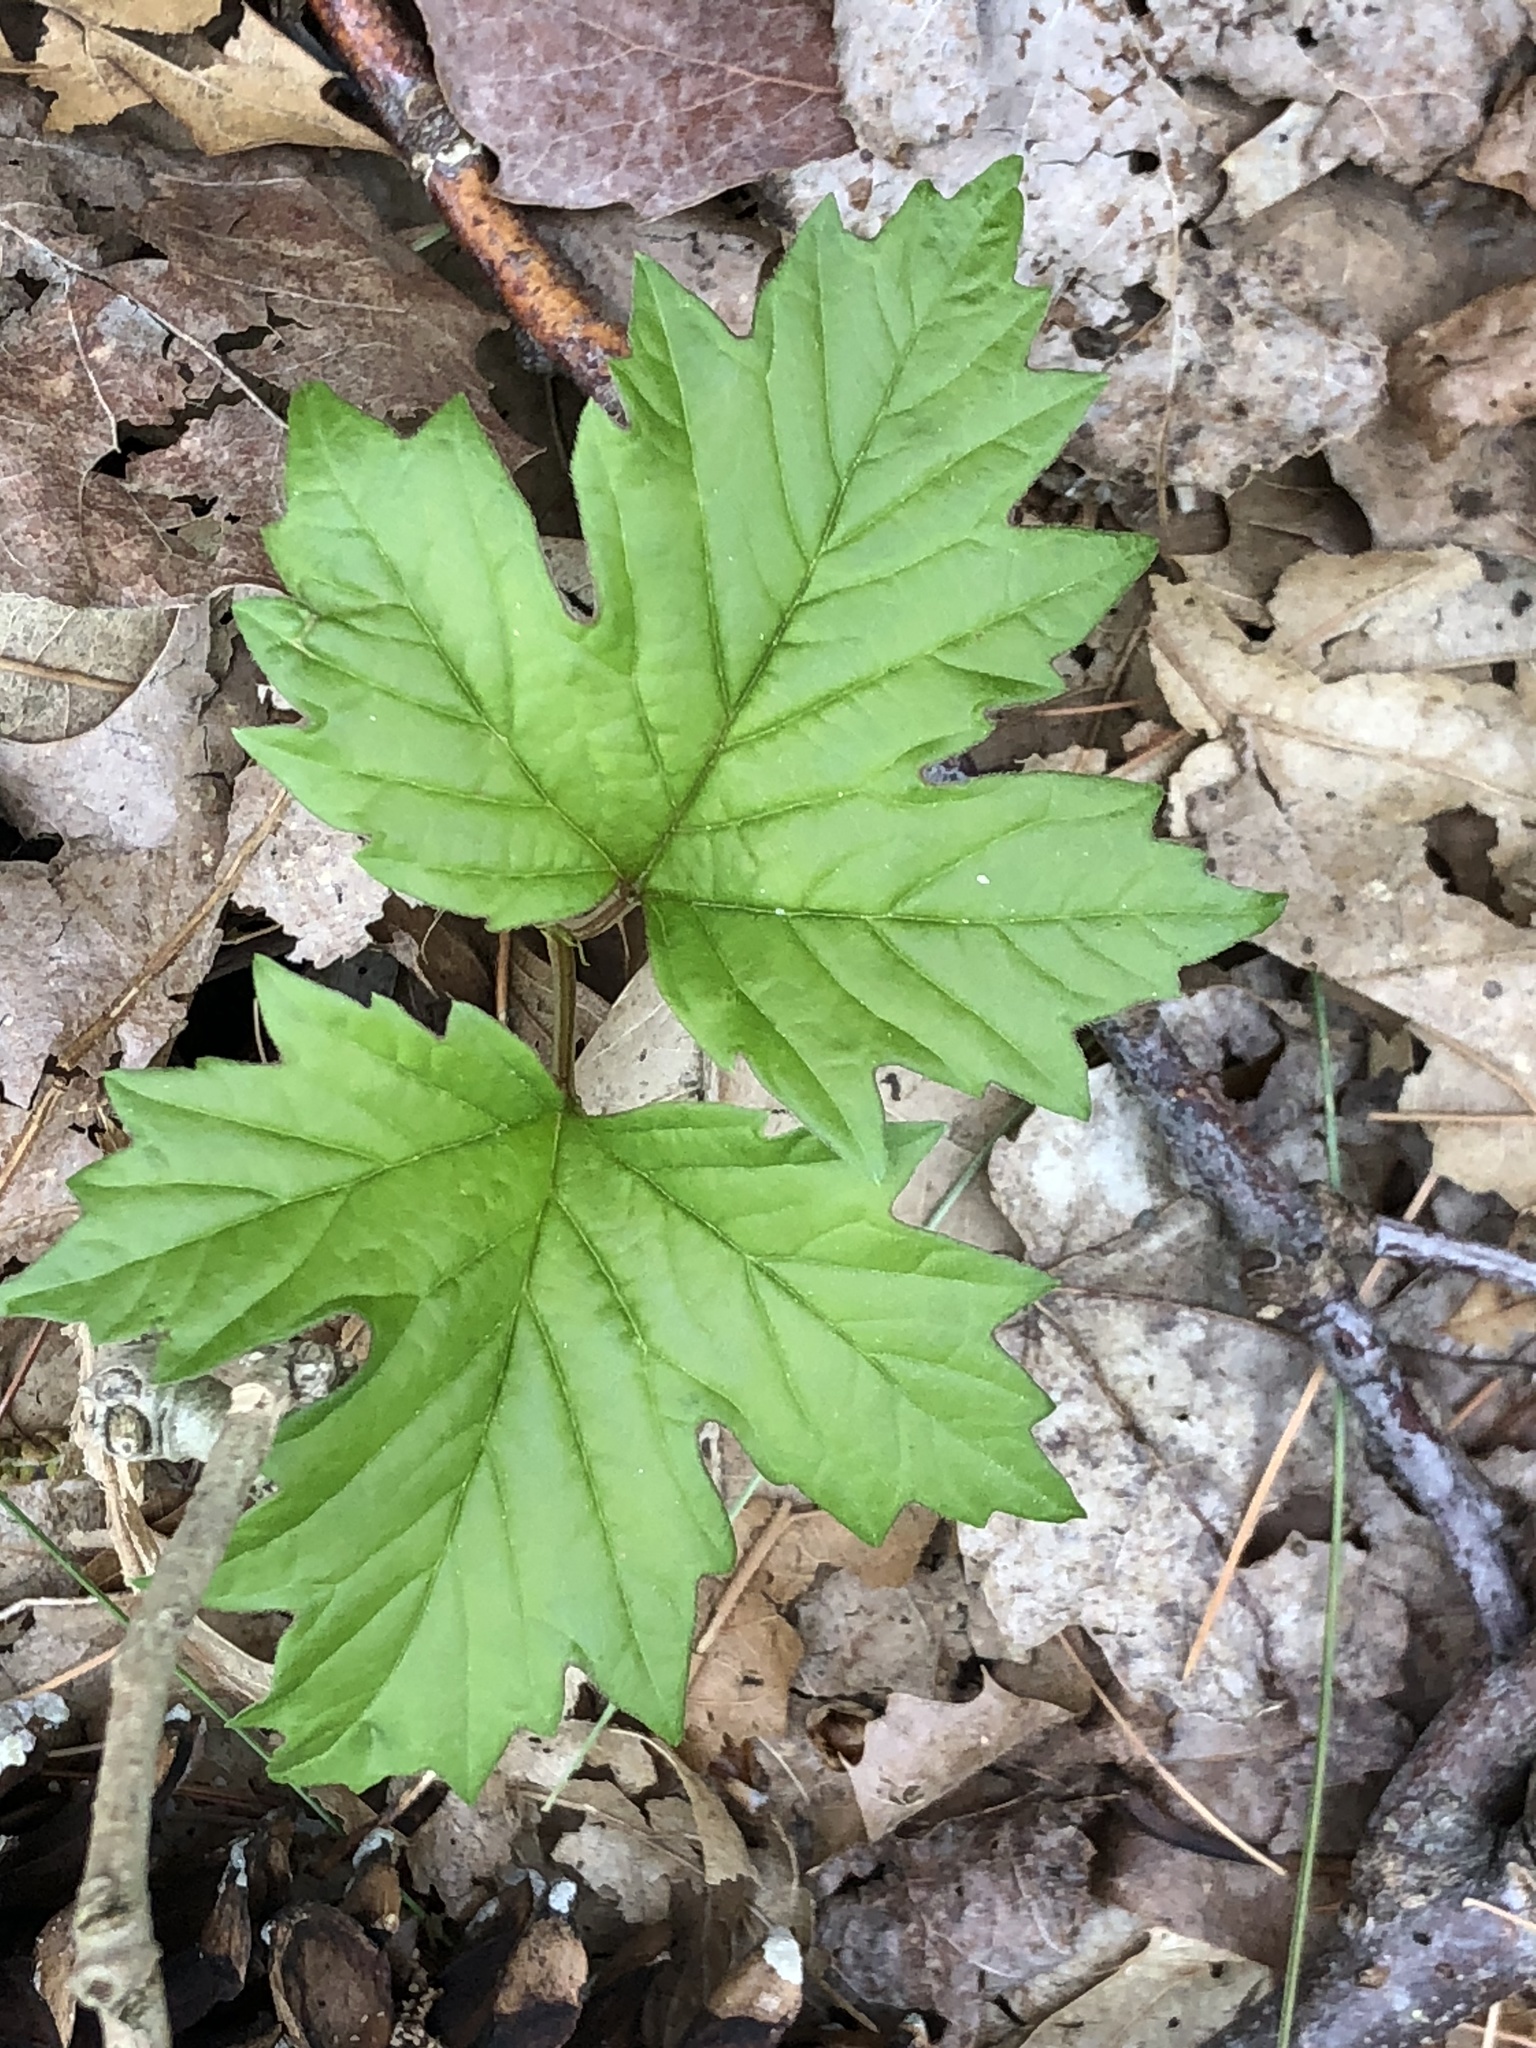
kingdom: Plantae
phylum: Tracheophyta
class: Magnoliopsida
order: Dipsacales
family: Viburnaceae
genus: Viburnum
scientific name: Viburnum acerifolium
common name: Dockmackie
